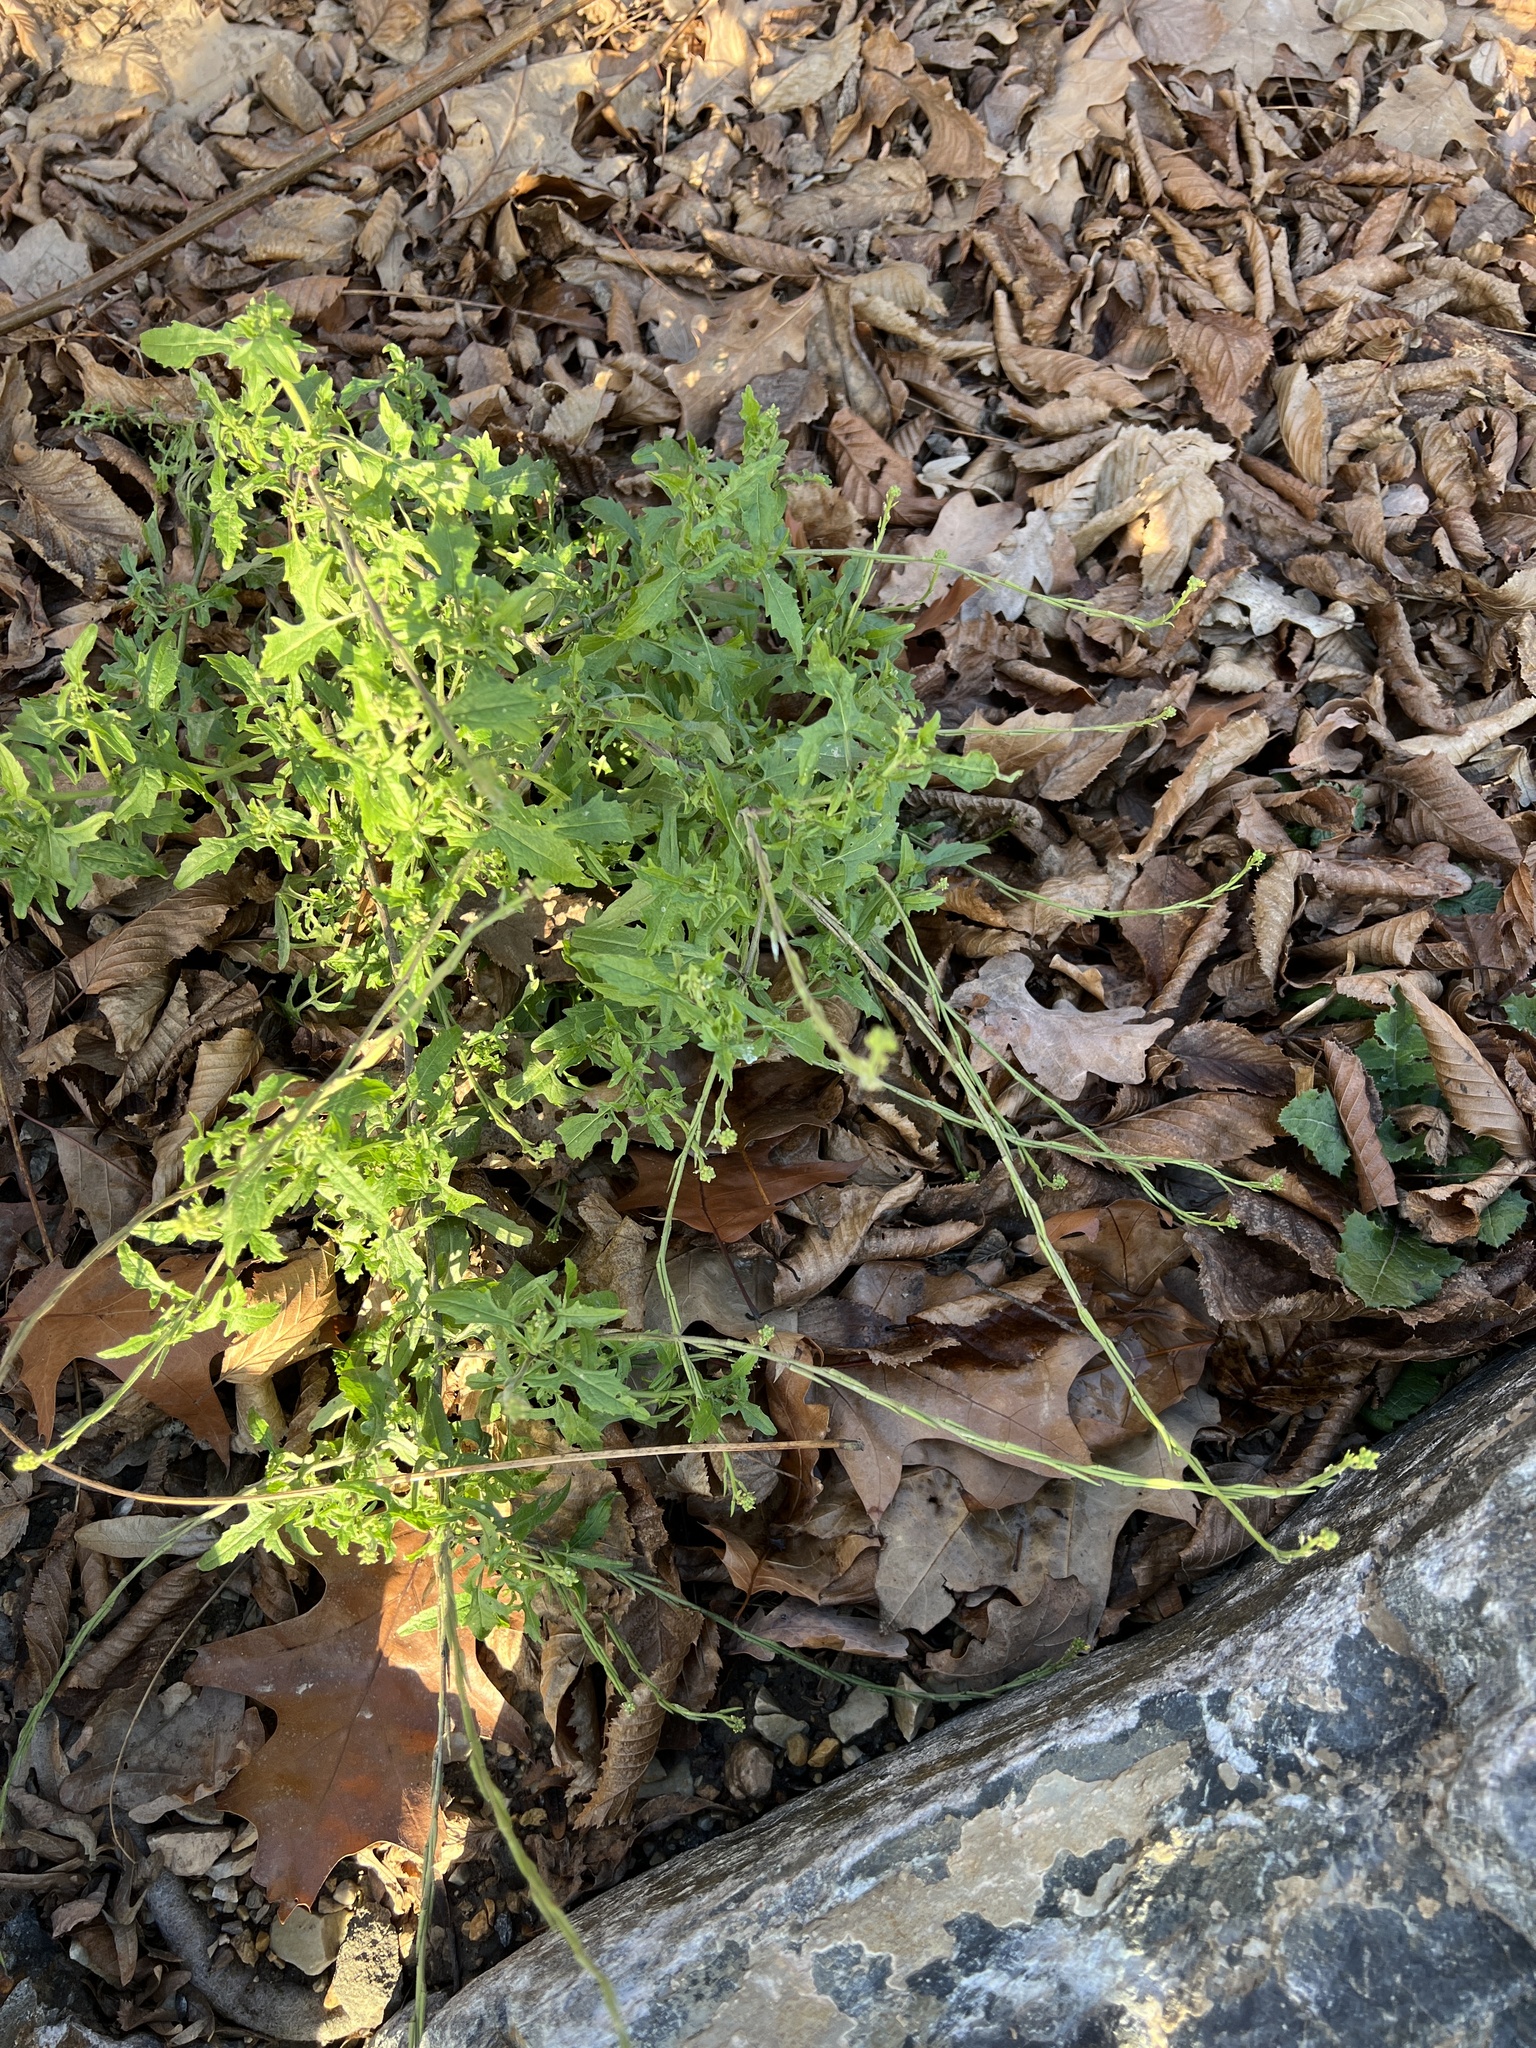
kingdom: Plantae
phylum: Tracheophyta
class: Magnoliopsida
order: Brassicales
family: Brassicaceae
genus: Sisymbrium
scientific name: Sisymbrium officinale
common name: Hedge mustard
